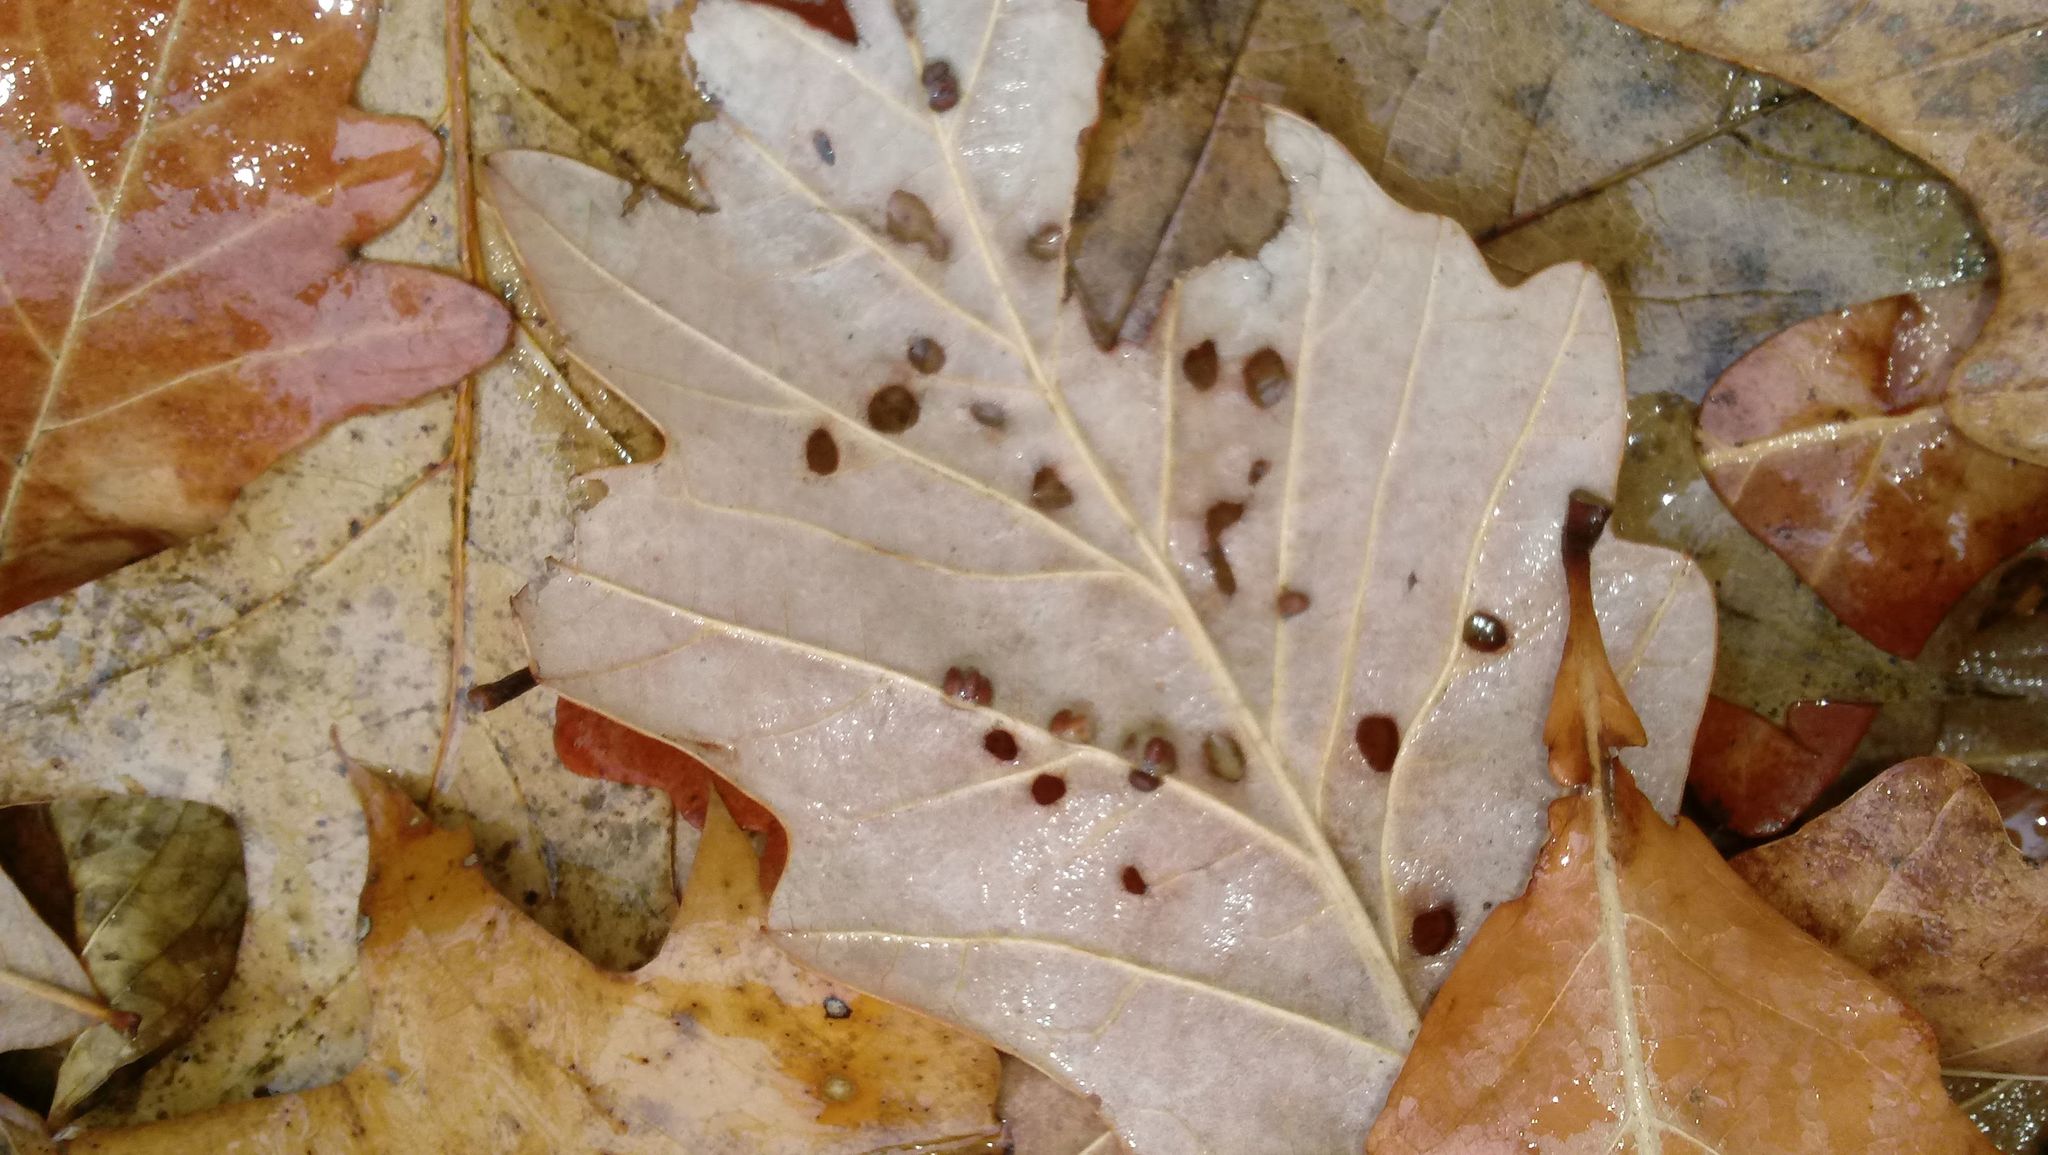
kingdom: Animalia
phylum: Arthropoda
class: Insecta
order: Hymenoptera
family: Cynipidae
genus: Andricus
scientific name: Andricus Druon ignotum
